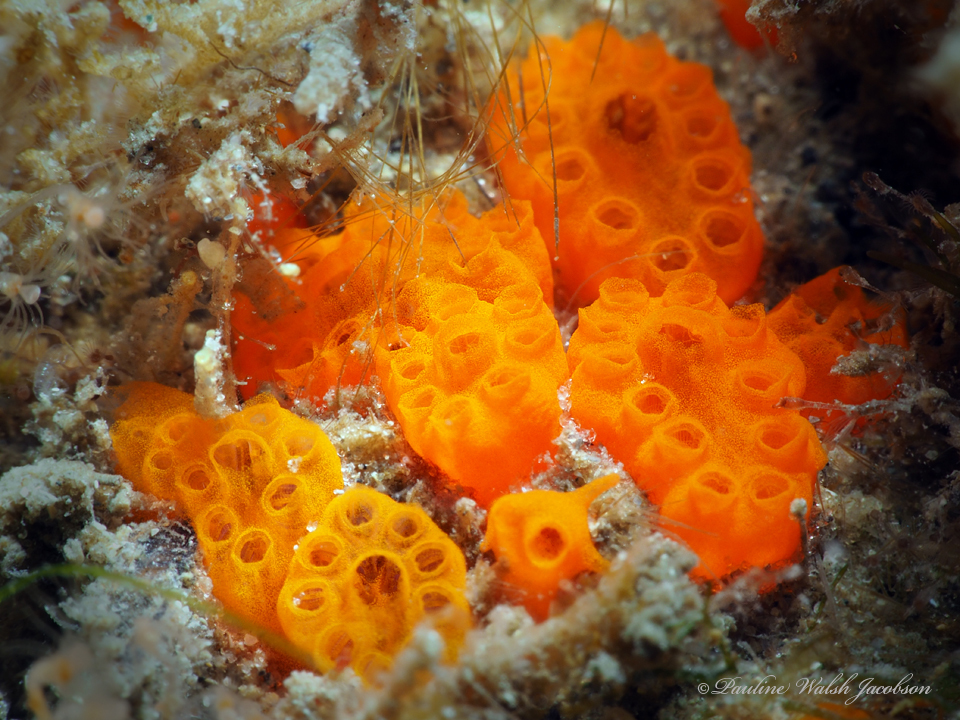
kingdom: Animalia
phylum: Chordata
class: Ascidiacea
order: Aplousobranchia
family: Holozoidae
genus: Distaplia
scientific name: Distaplia corolla
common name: Button tunicate
